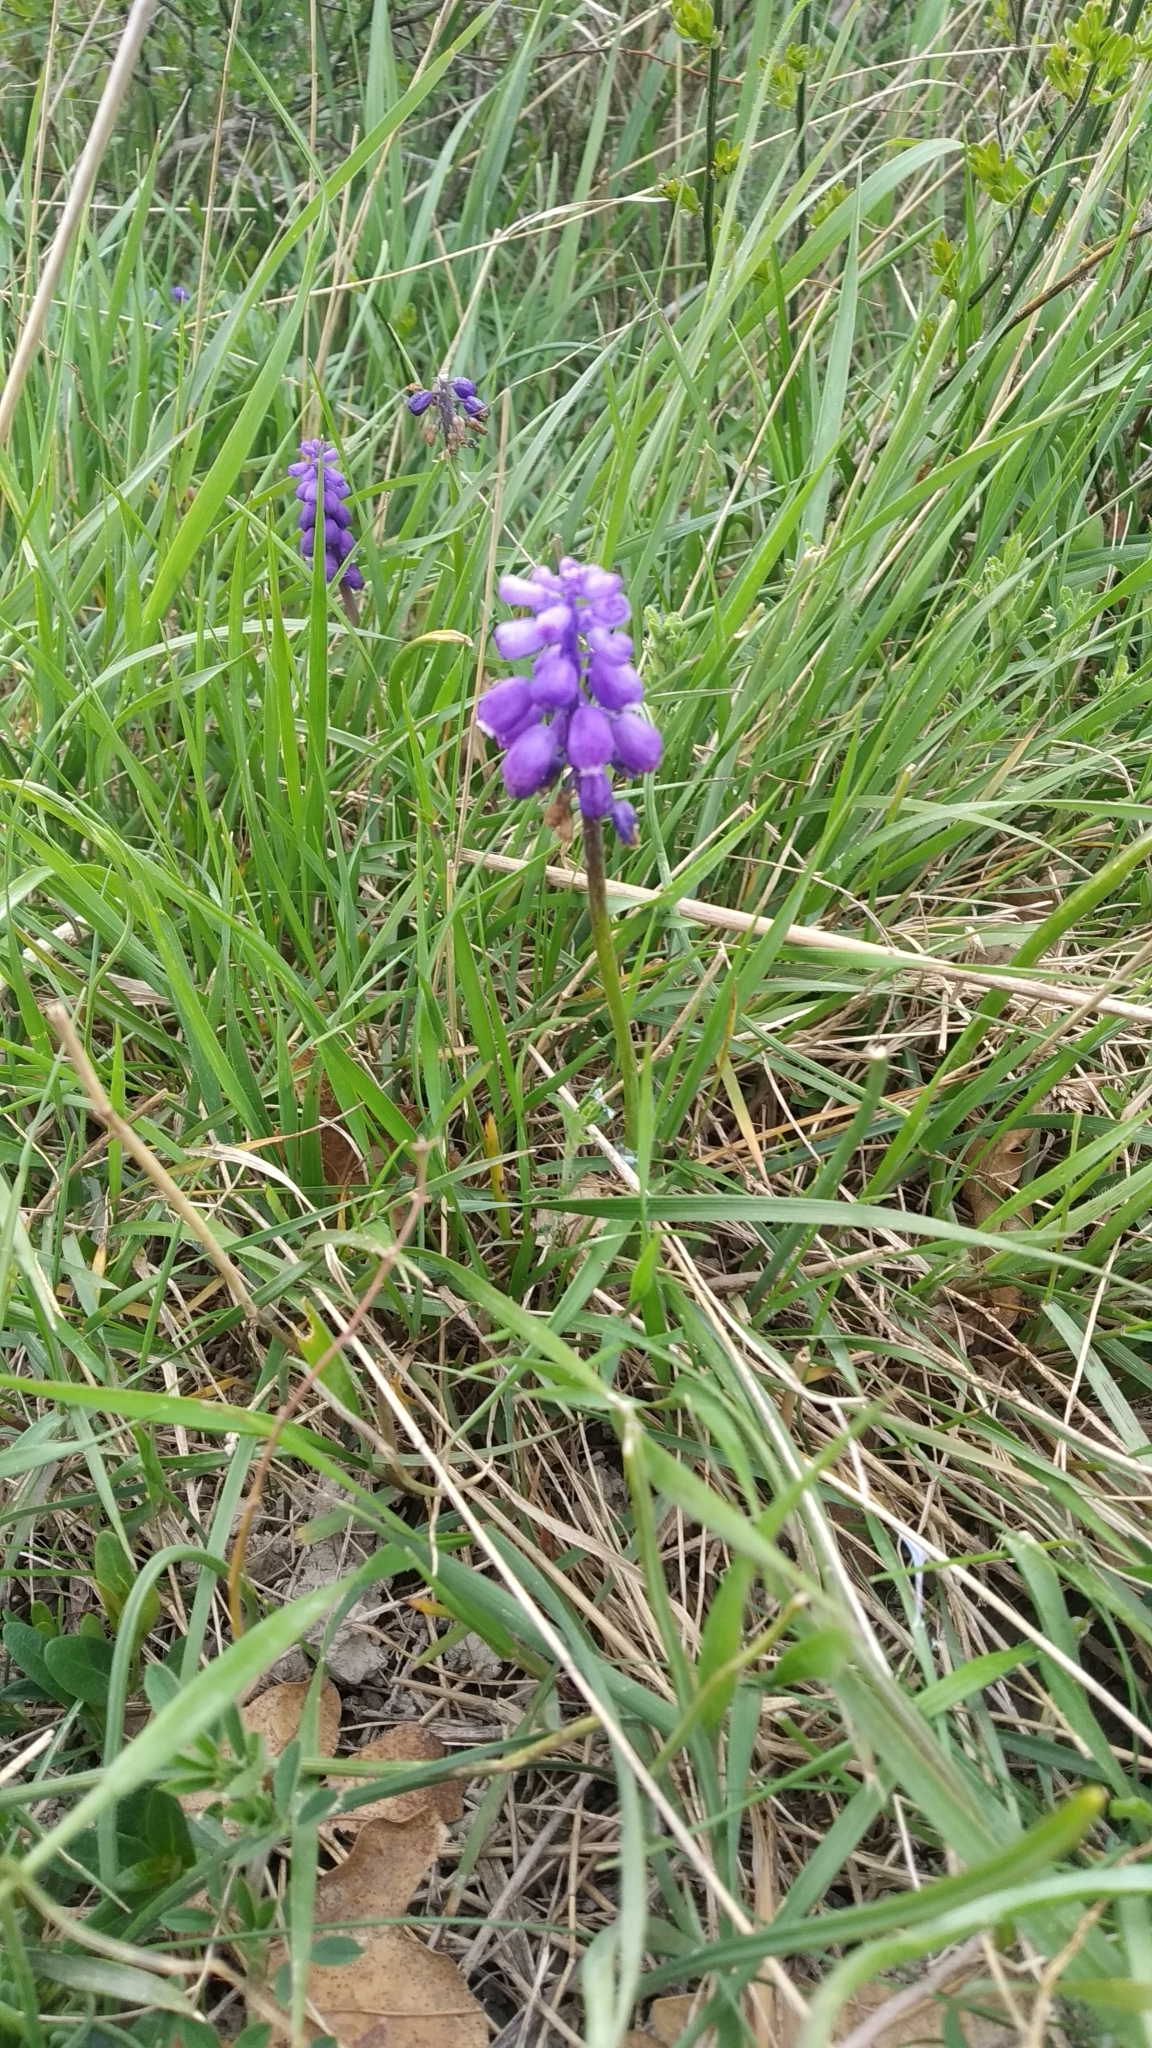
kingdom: Plantae
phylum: Tracheophyta
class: Liliopsida
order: Asparagales
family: Asparagaceae
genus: Muscari
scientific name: Muscari neglectum
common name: Grape-hyacinth
